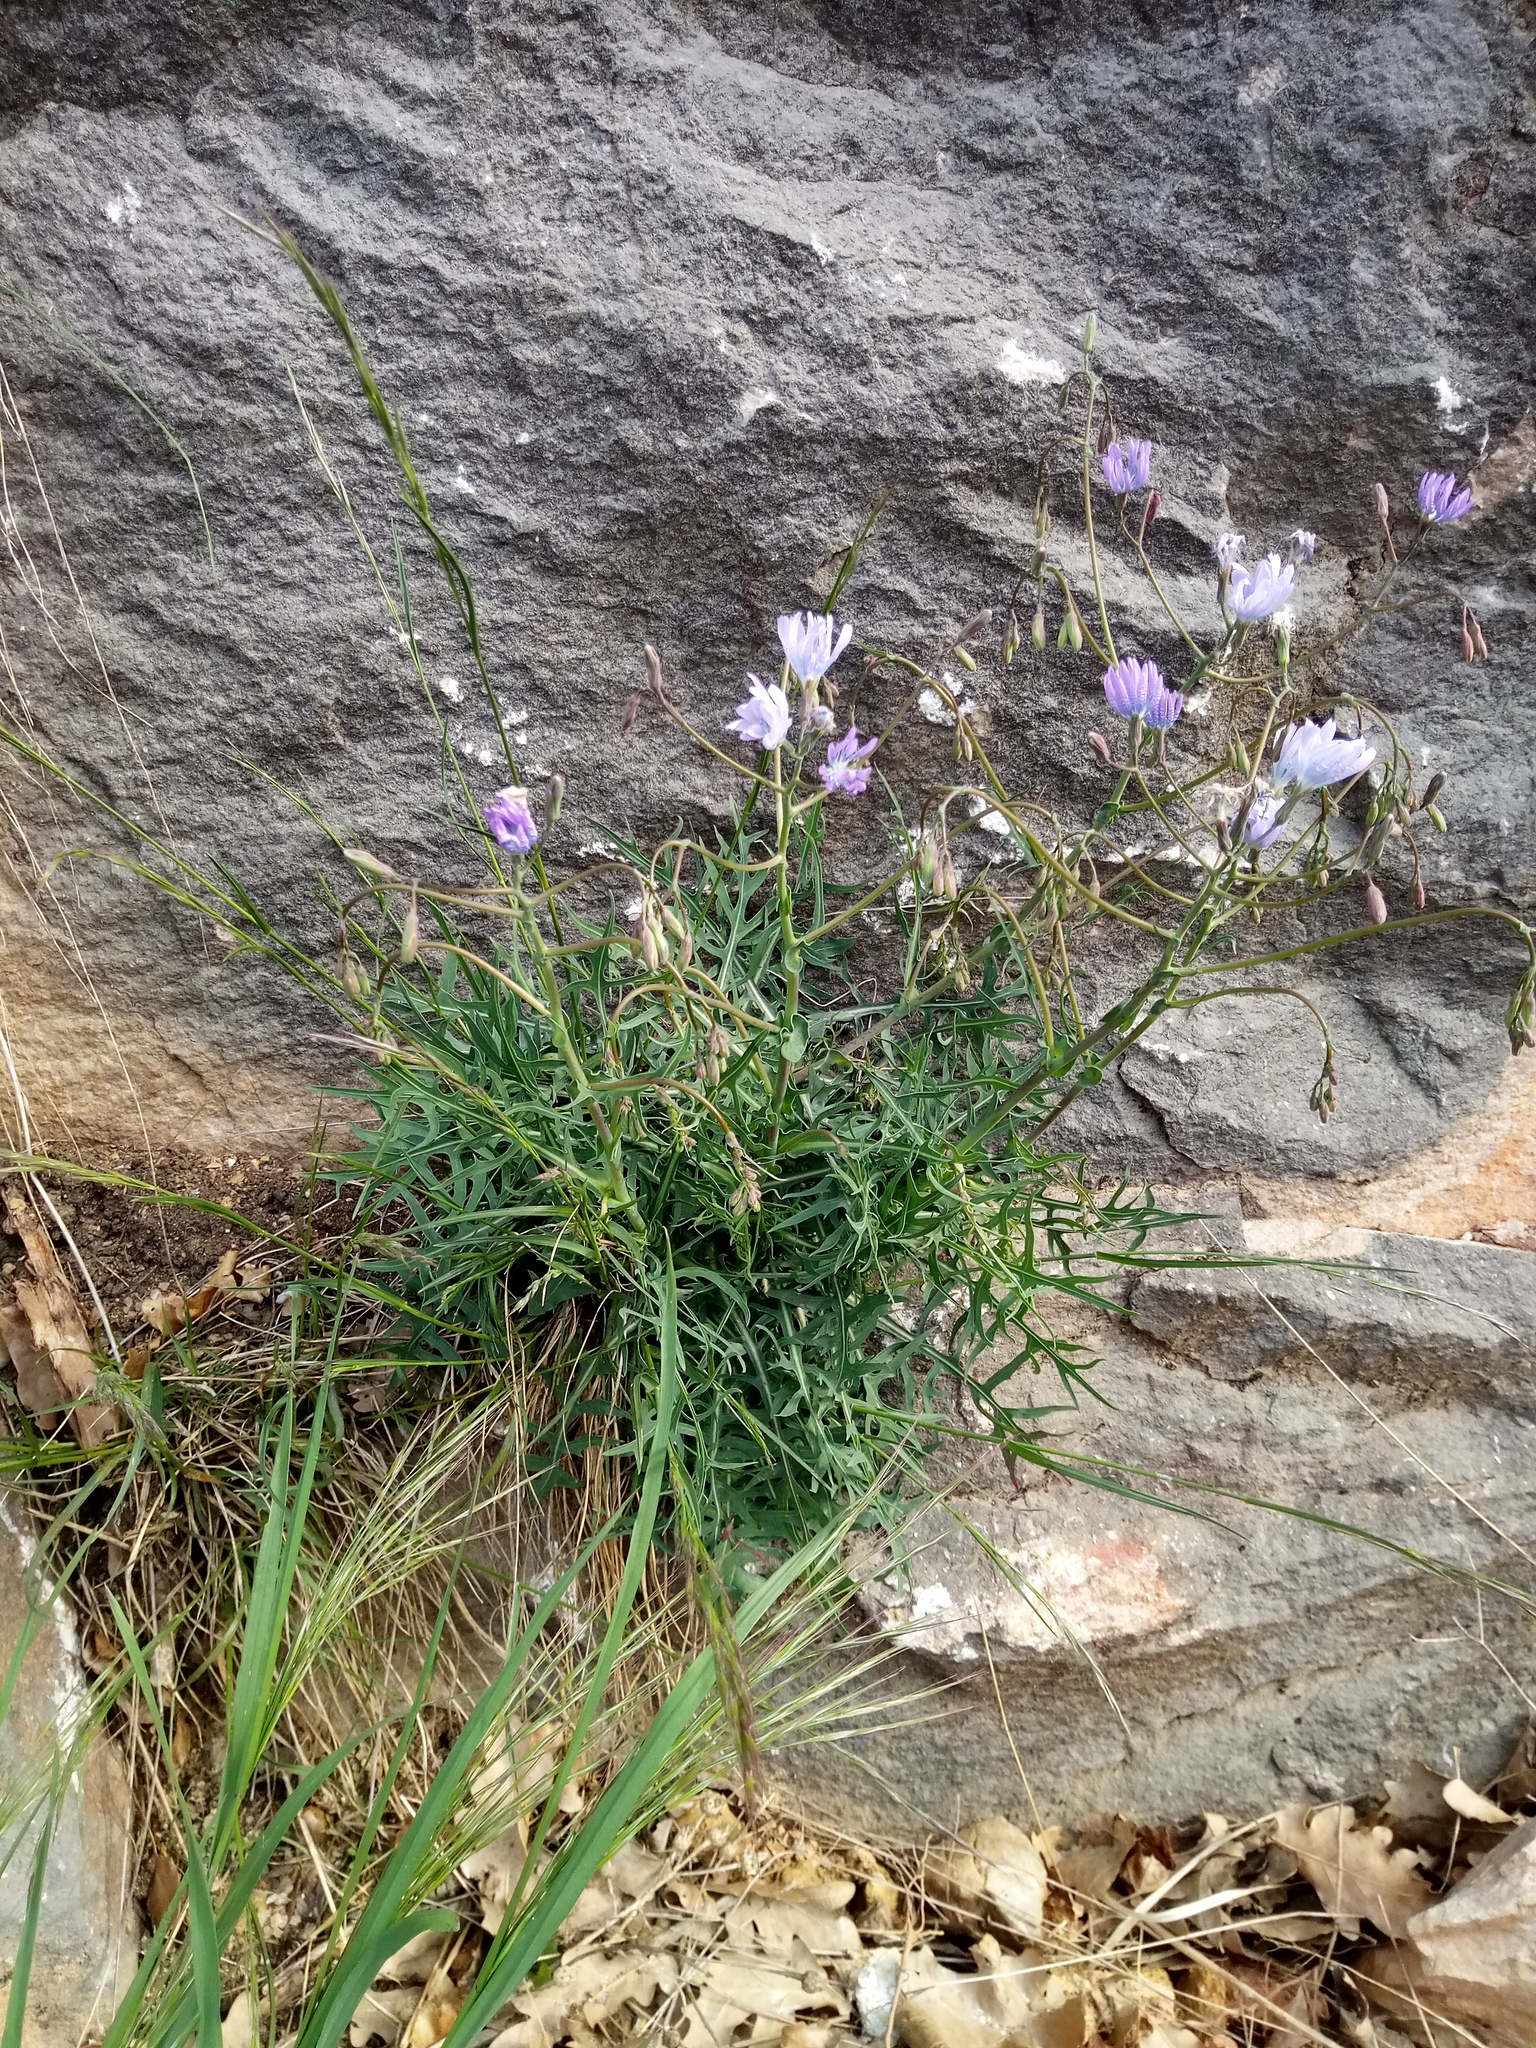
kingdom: Plantae
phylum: Tracheophyta
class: Magnoliopsida
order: Asterales
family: Asteraceae
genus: Lactuca
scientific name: Lactuca perennis
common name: Mountain lettuce
